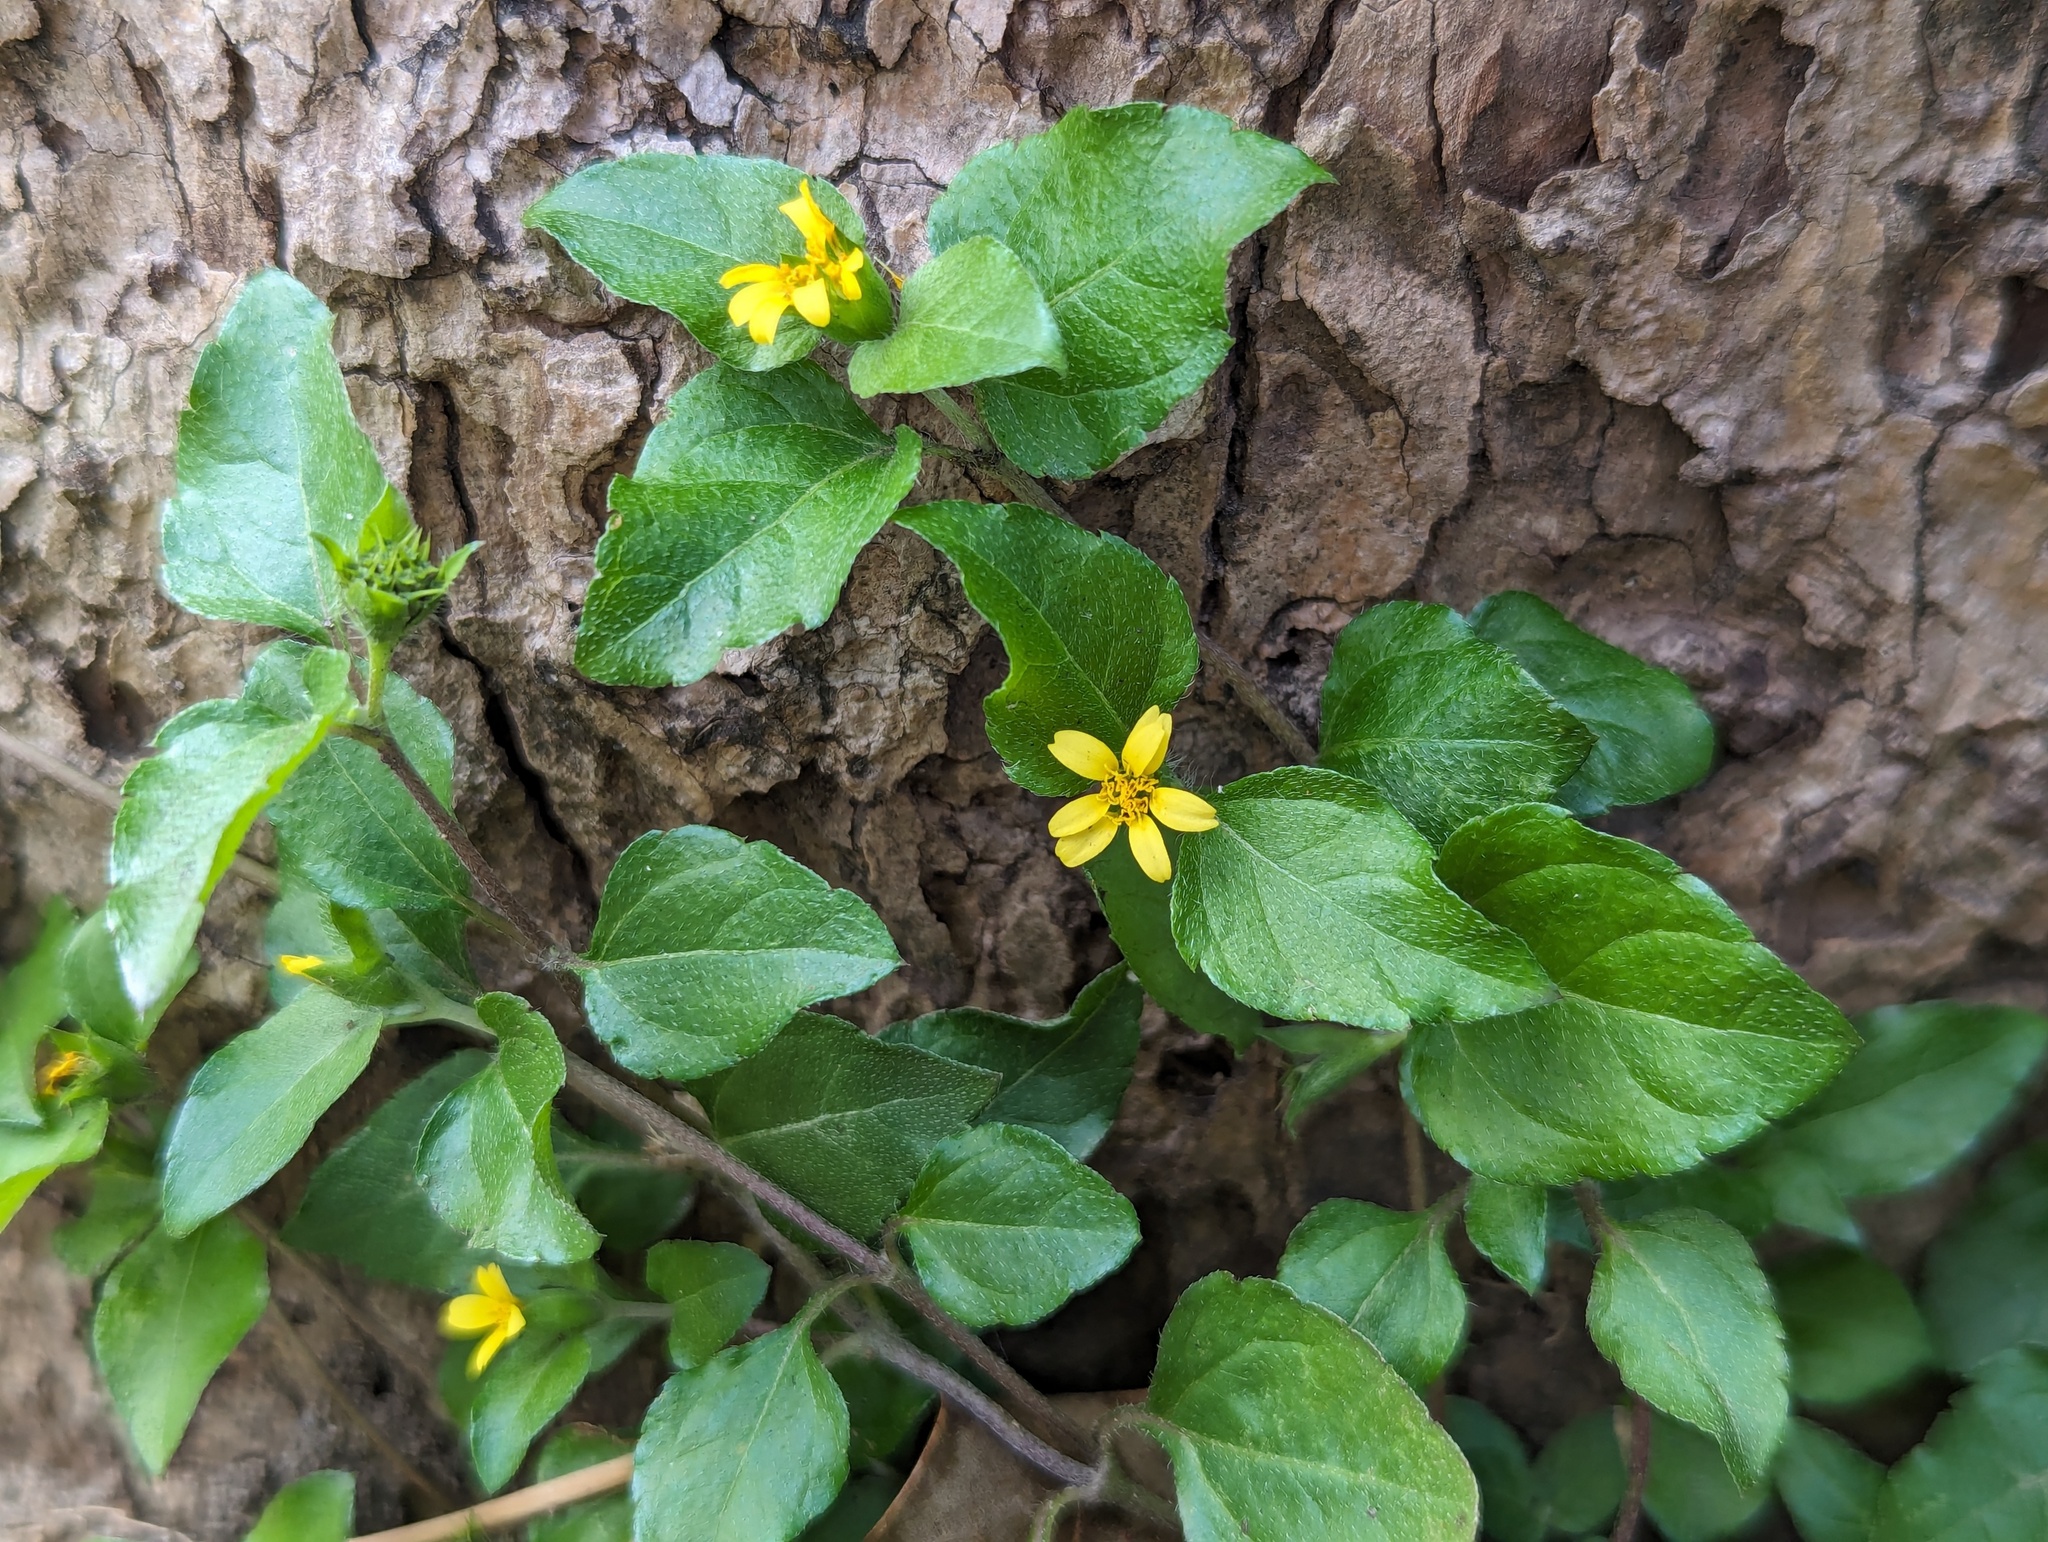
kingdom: Plantae
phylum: Tracheophyta
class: Magnoliopsida
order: Asterales
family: Asteraceae
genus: Calyptocarpus
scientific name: Calyptocarpus vialis
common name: Straggler daisy
